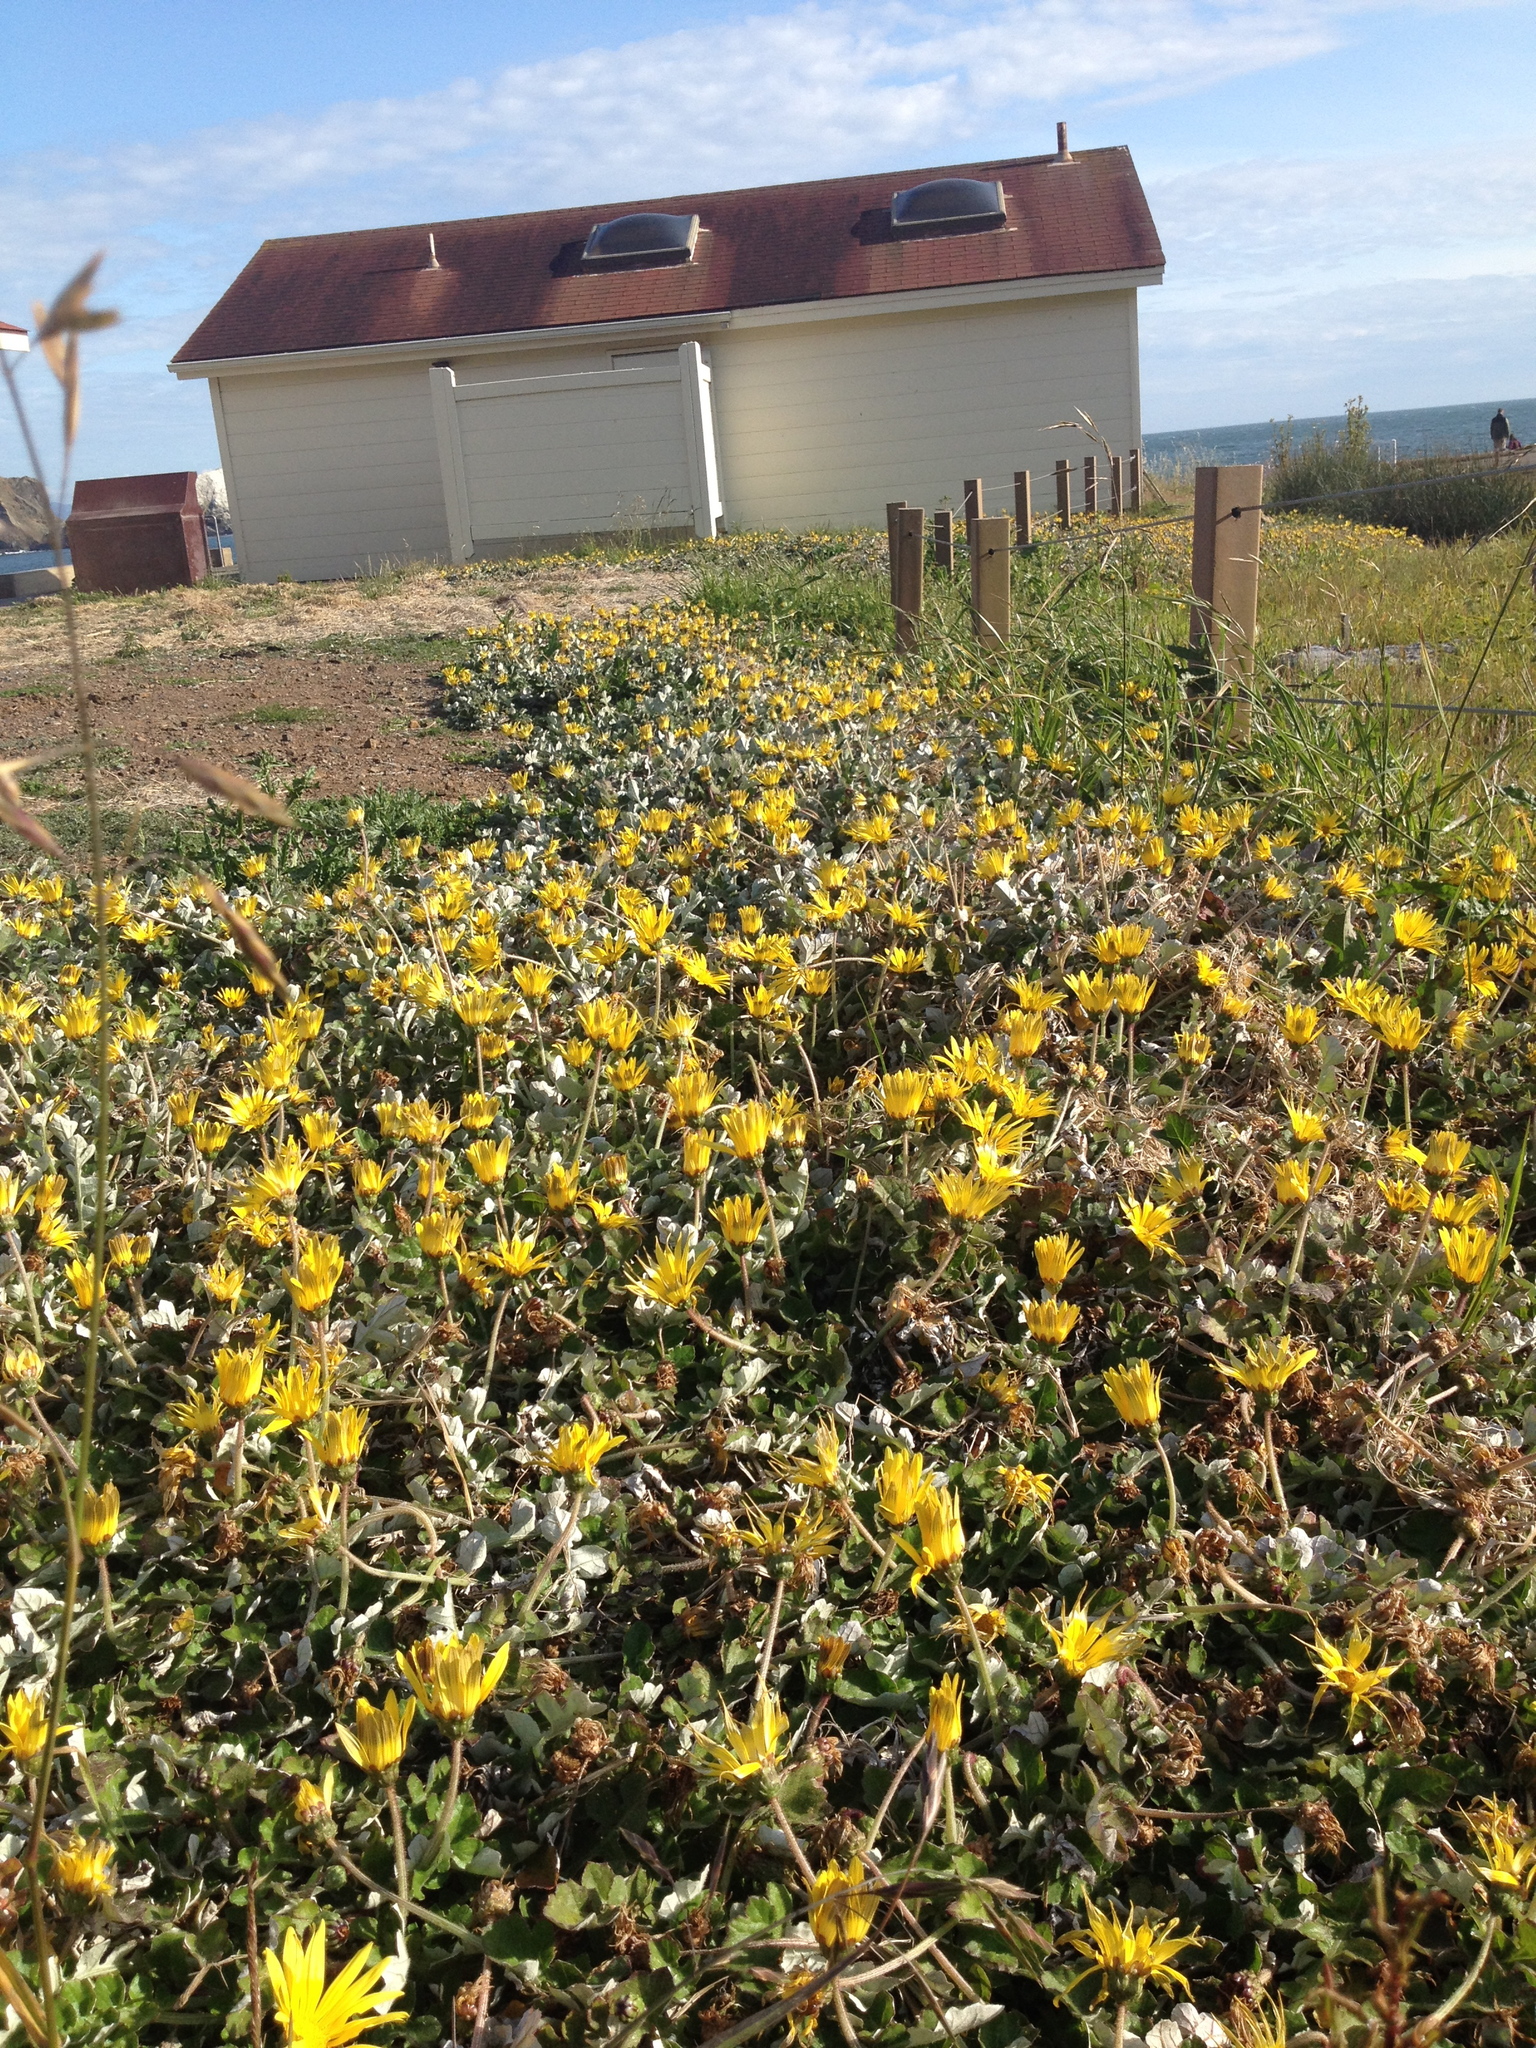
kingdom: Plantae
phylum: Tracheophyta
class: Magnoliopsida
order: Asterales
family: Asteraceae
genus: Arctotheca
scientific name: Arctotheca prostrata
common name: Capeweed
